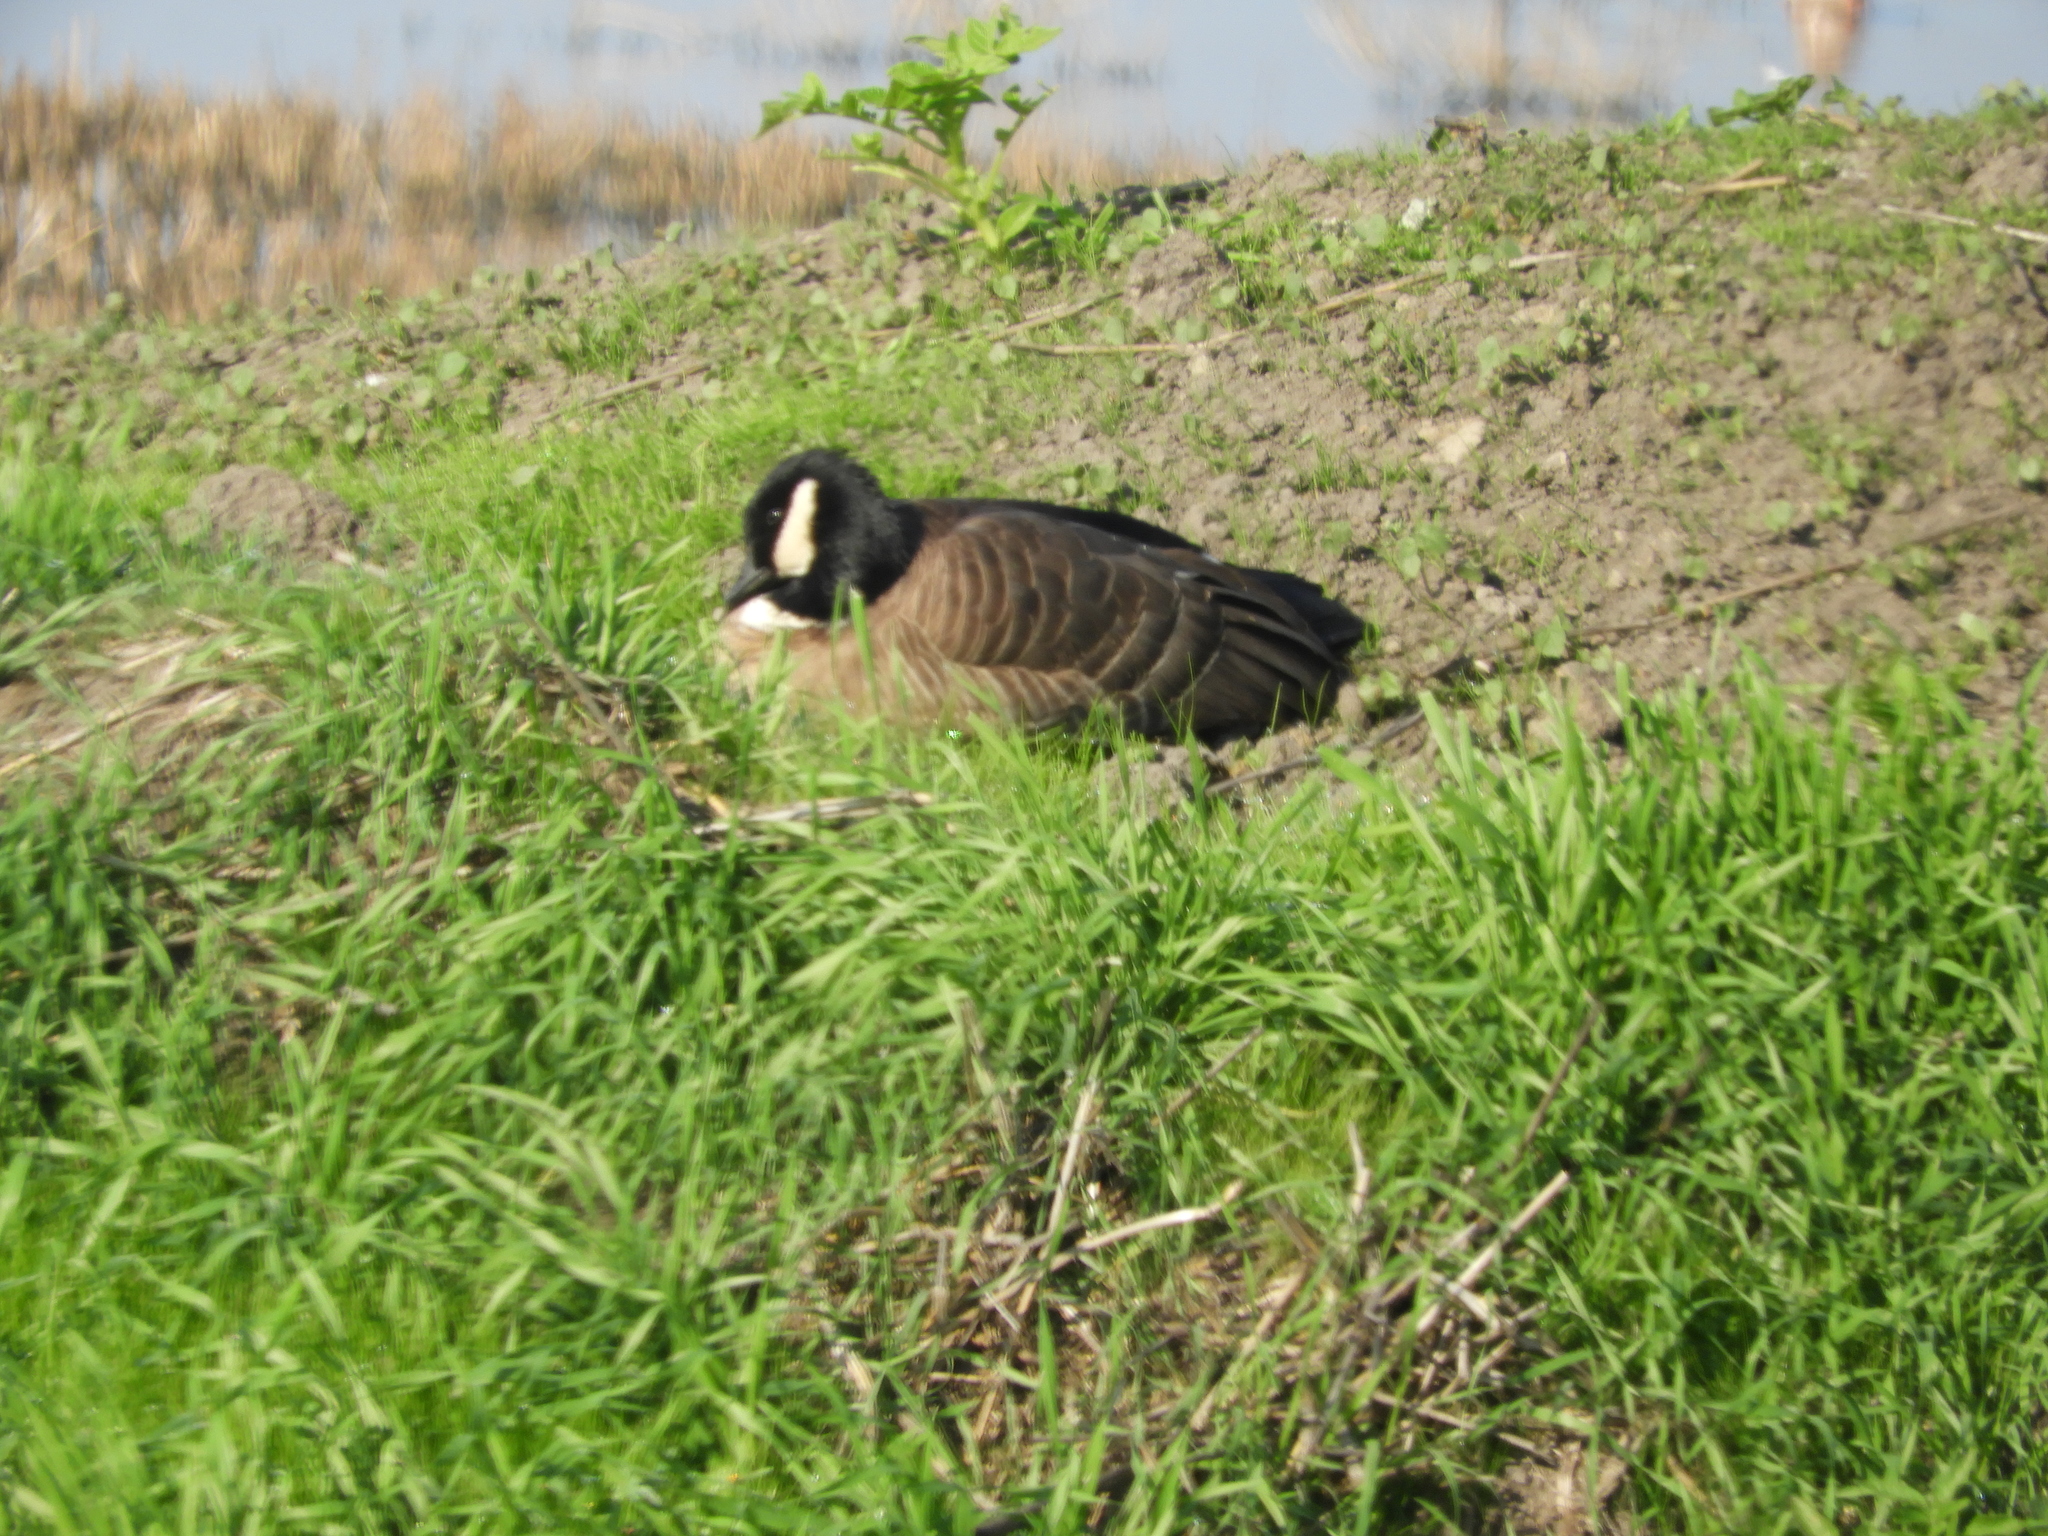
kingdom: Animalia
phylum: Chordata
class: Aves
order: Anseriformes
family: Anatidae
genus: Branta
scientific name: Branta hutchinsii
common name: Cackling goose
